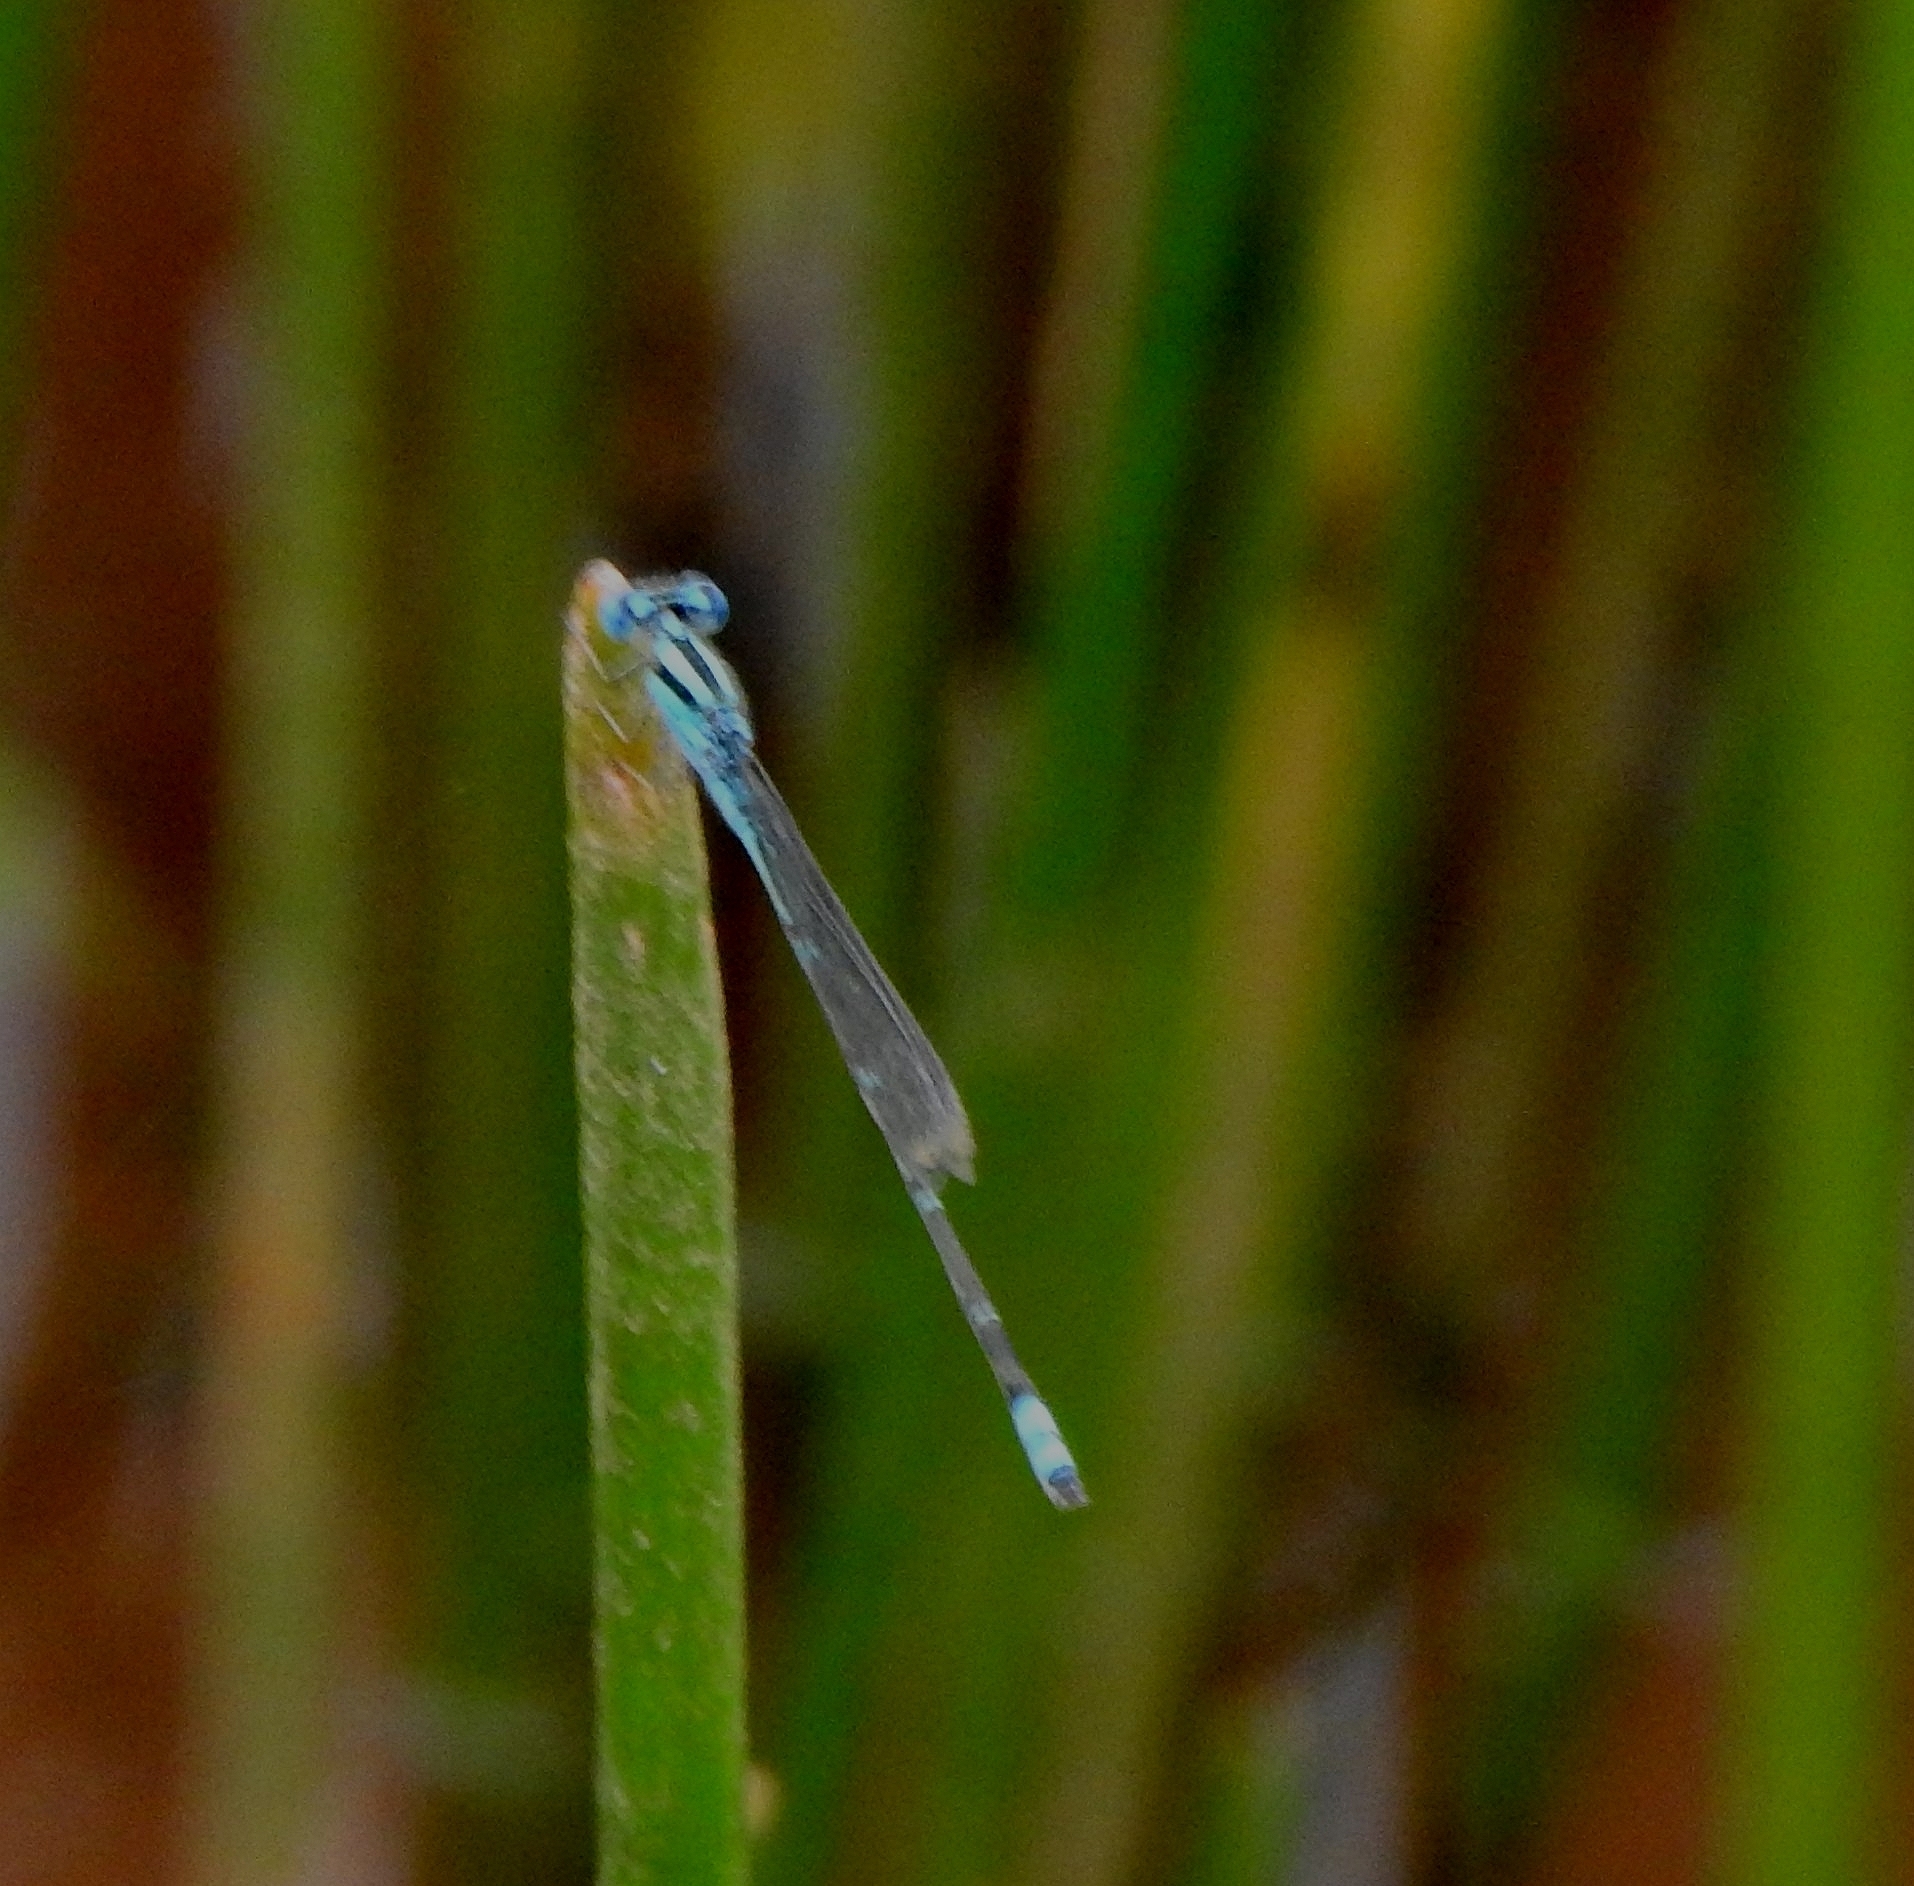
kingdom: Animalia
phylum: Arthropoda
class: Insecta
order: Odonata
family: Coenagrionidae
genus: Pseudagrion
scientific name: Pseudagrion microcephalum
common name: Blue riverdamsel
